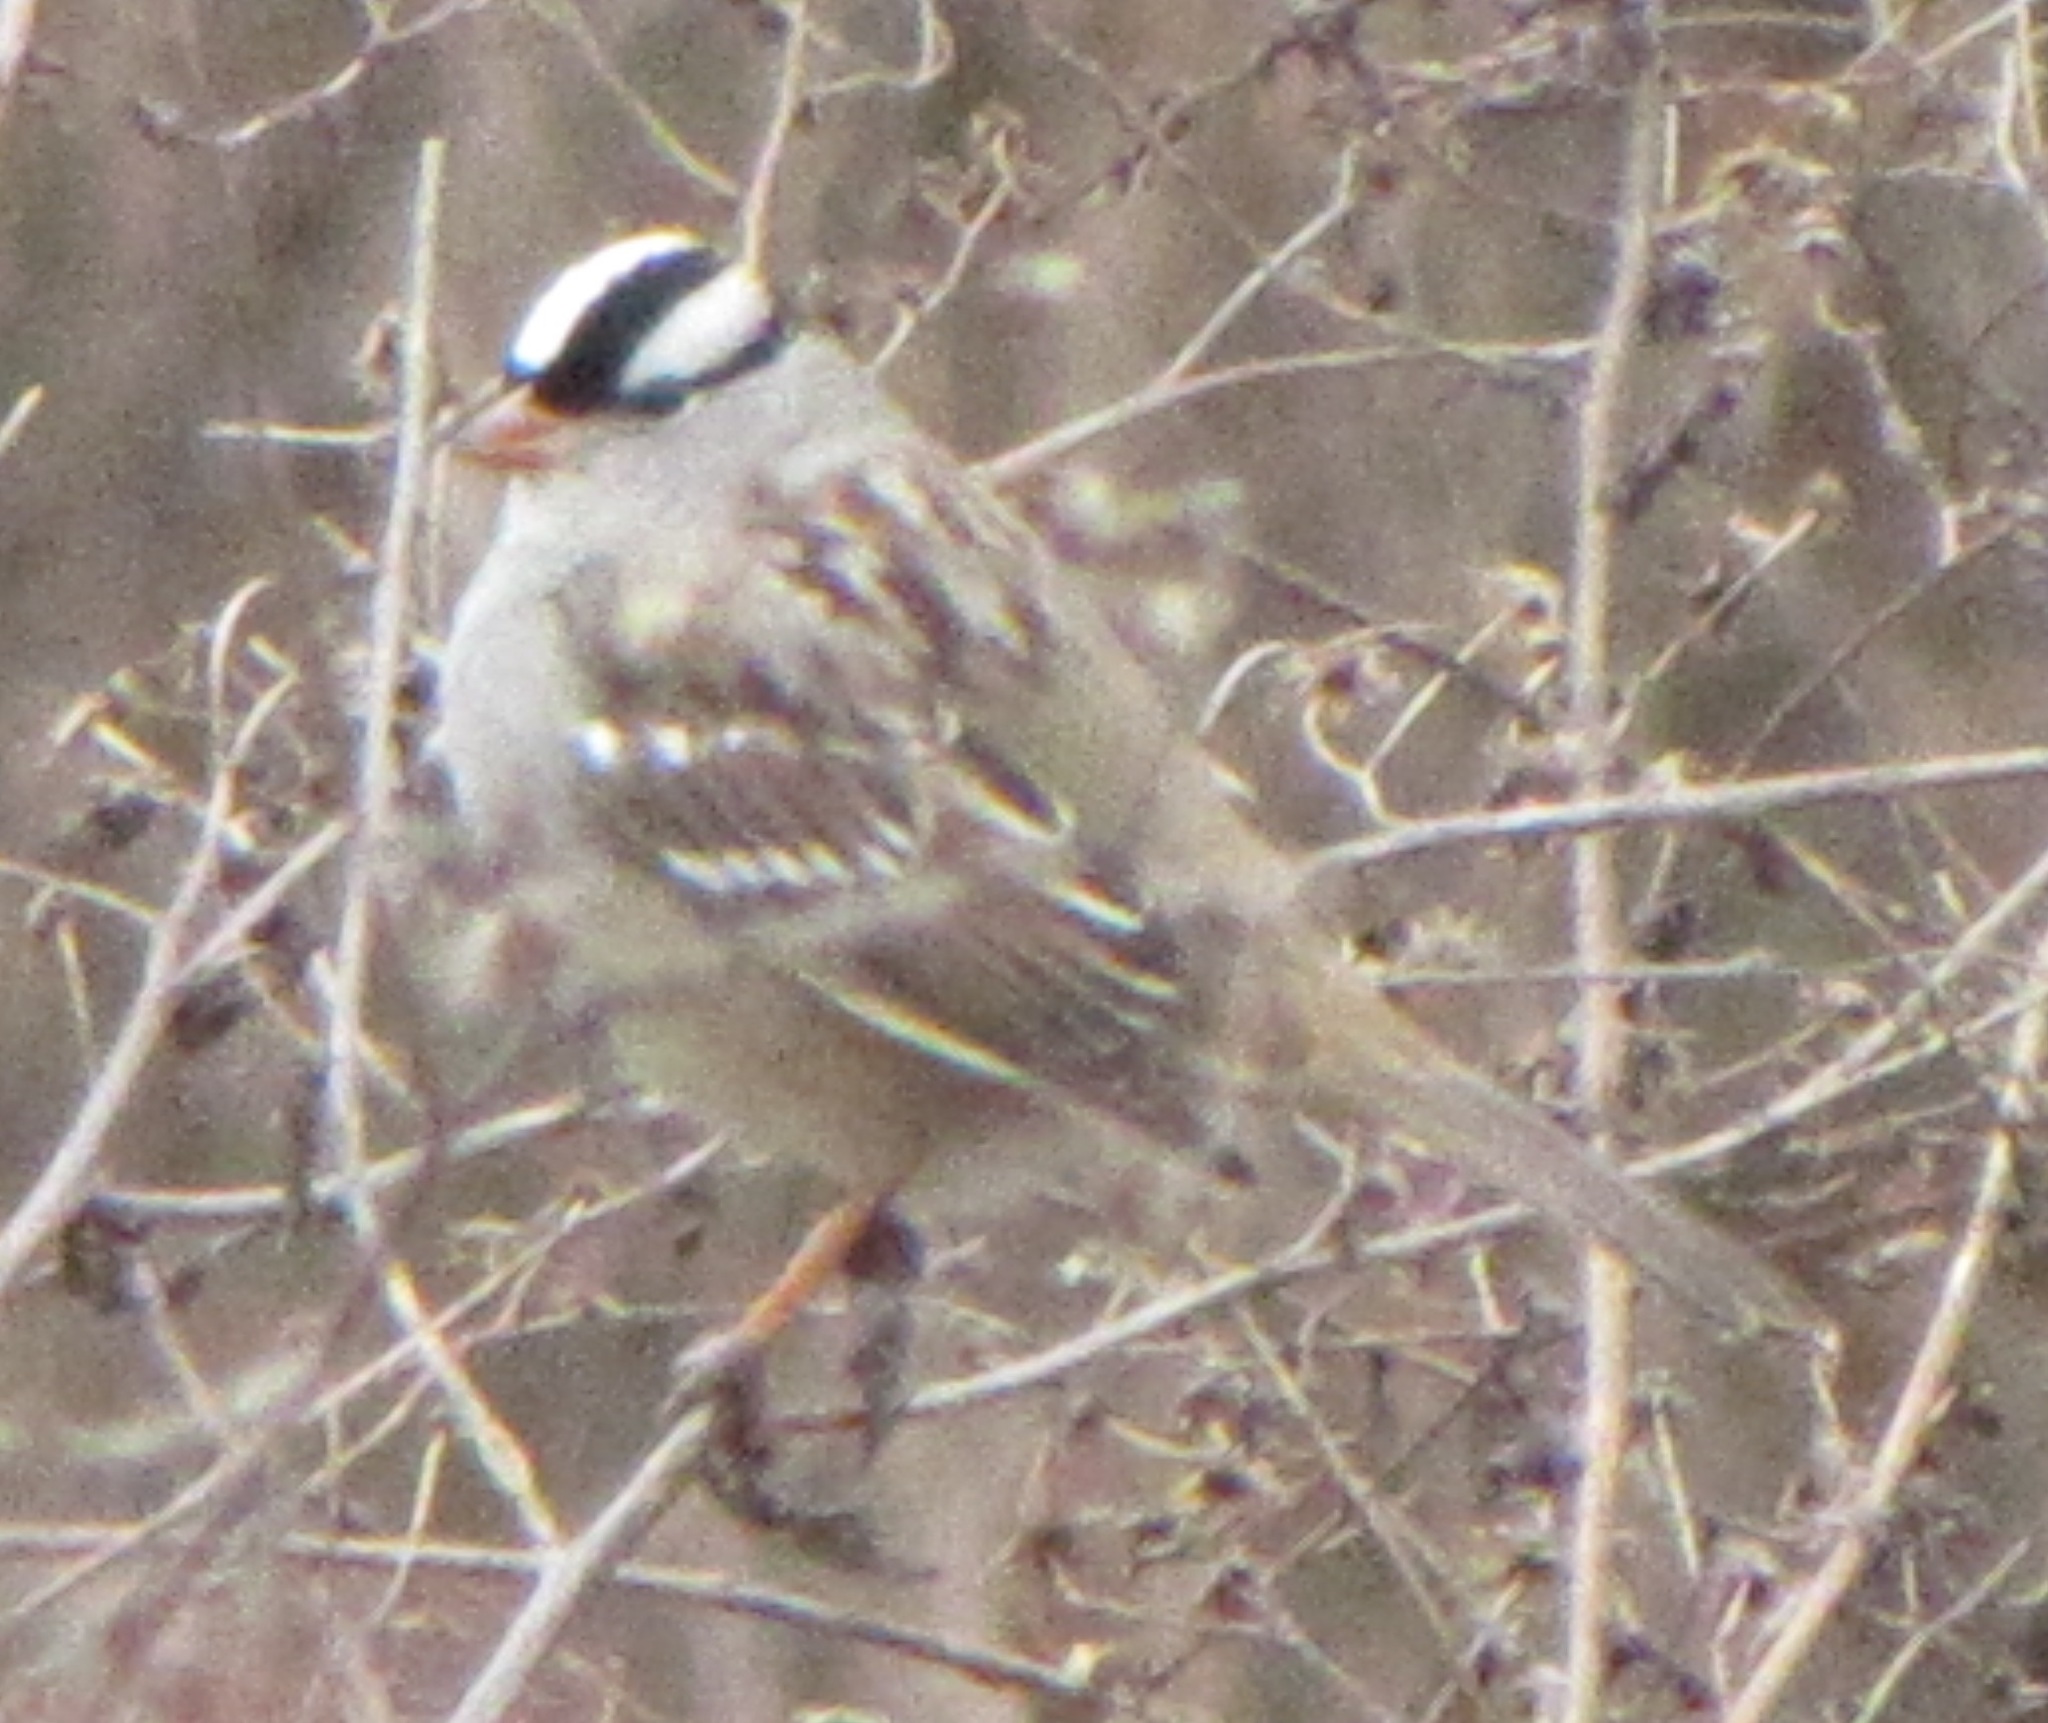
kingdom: Animalia
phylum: Chordata
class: Aves
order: Passeriformes
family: Passerellidae
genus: Zonotrichia
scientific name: Zonotrichia leucophrys
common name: White-crowned sparrow
